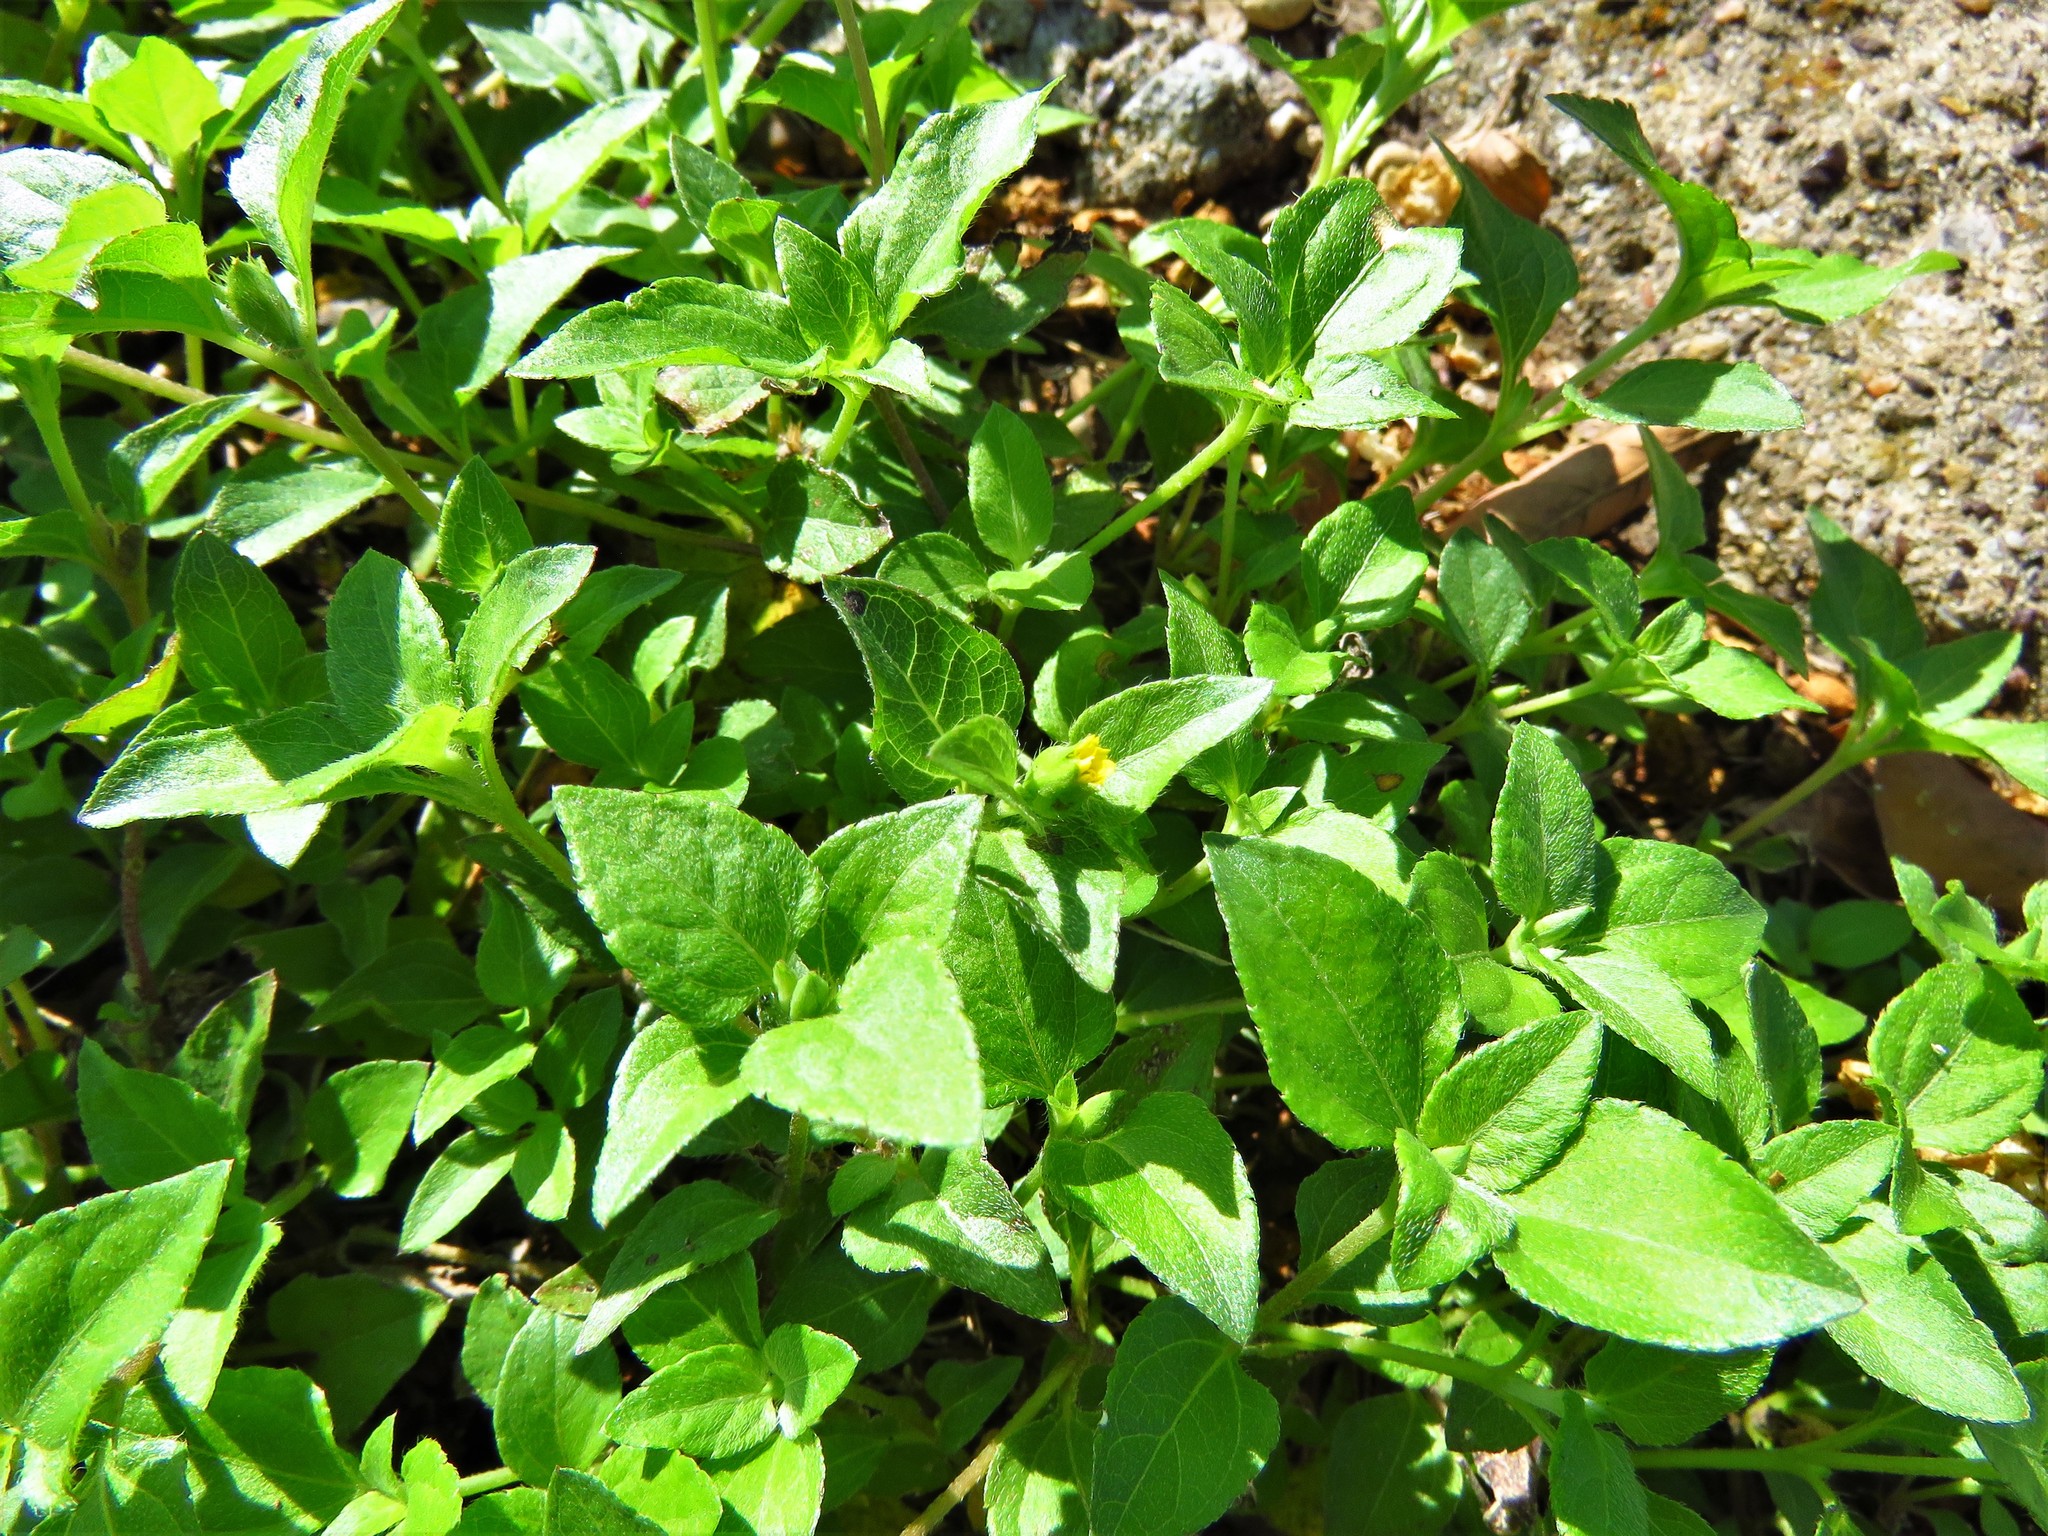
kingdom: Plantae
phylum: Tracheophyta
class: Magnoliopsida
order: Asterales
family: Asteraceae
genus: Calyptocarpus
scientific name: Calyptocarpus vialis
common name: Straggler daisy
